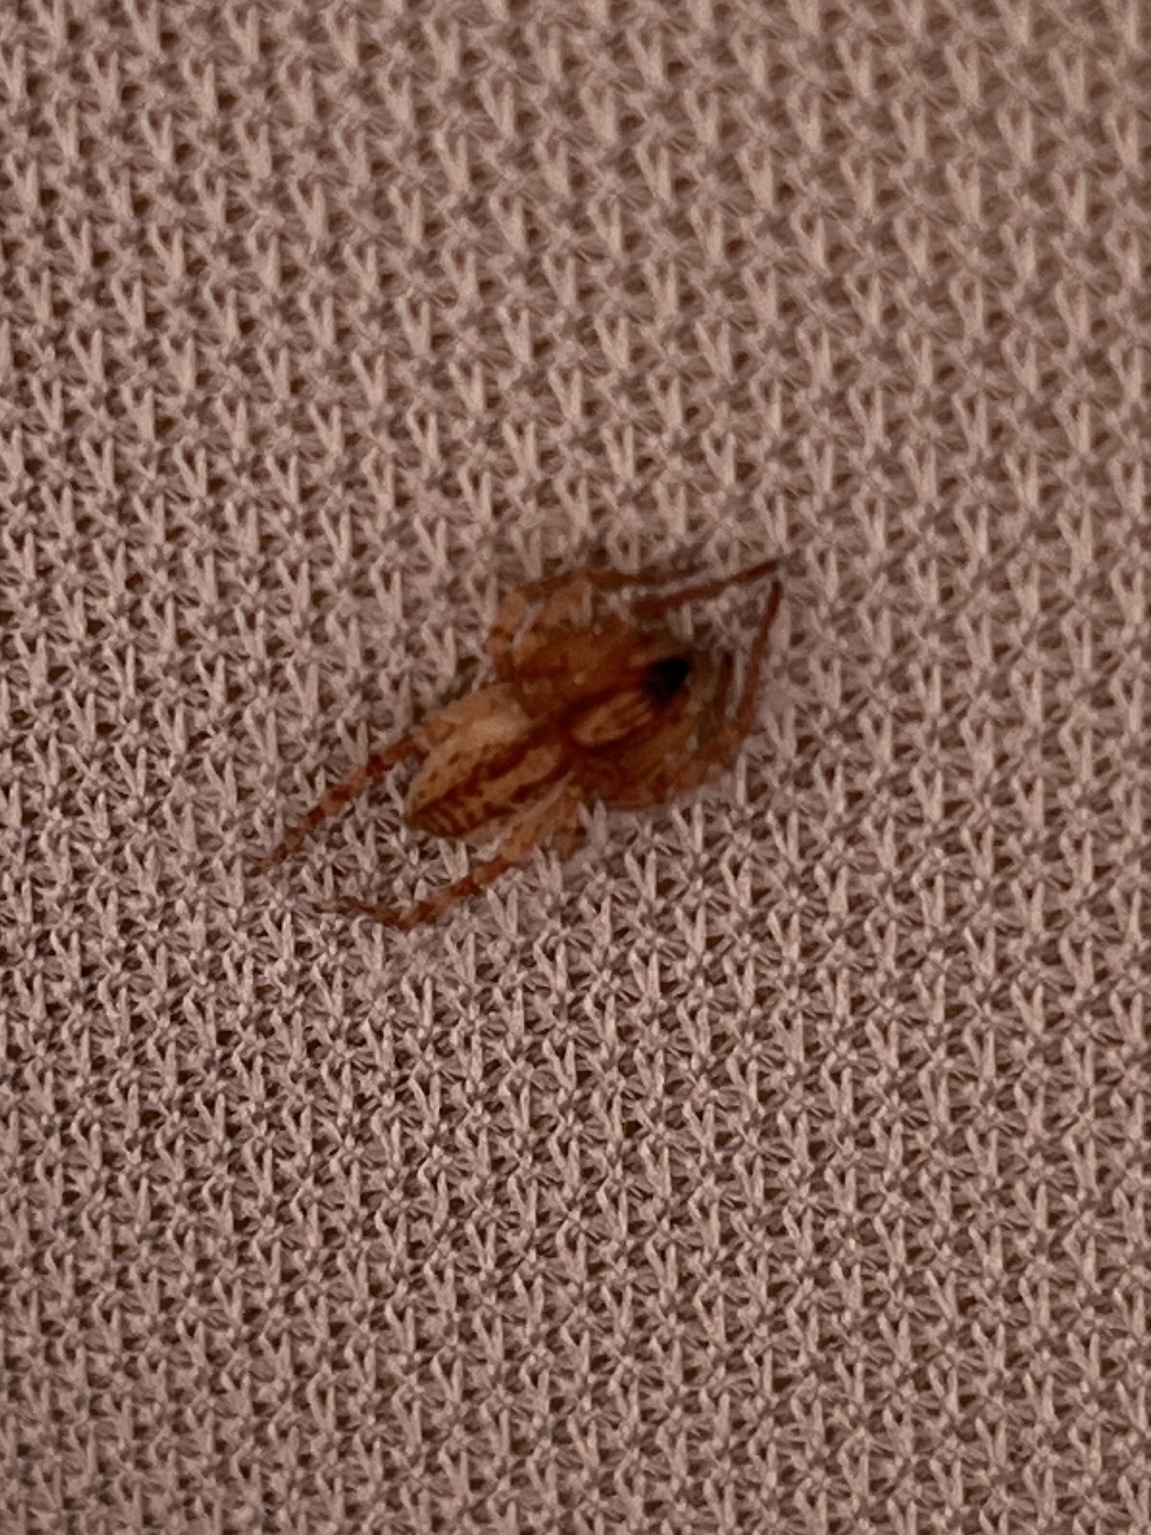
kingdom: Animalia
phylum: Arthropoda
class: Arachnida
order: Araneae
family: Anyphaenidae
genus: Hibana
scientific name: Hibana gracilis
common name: Garden ghost spider
